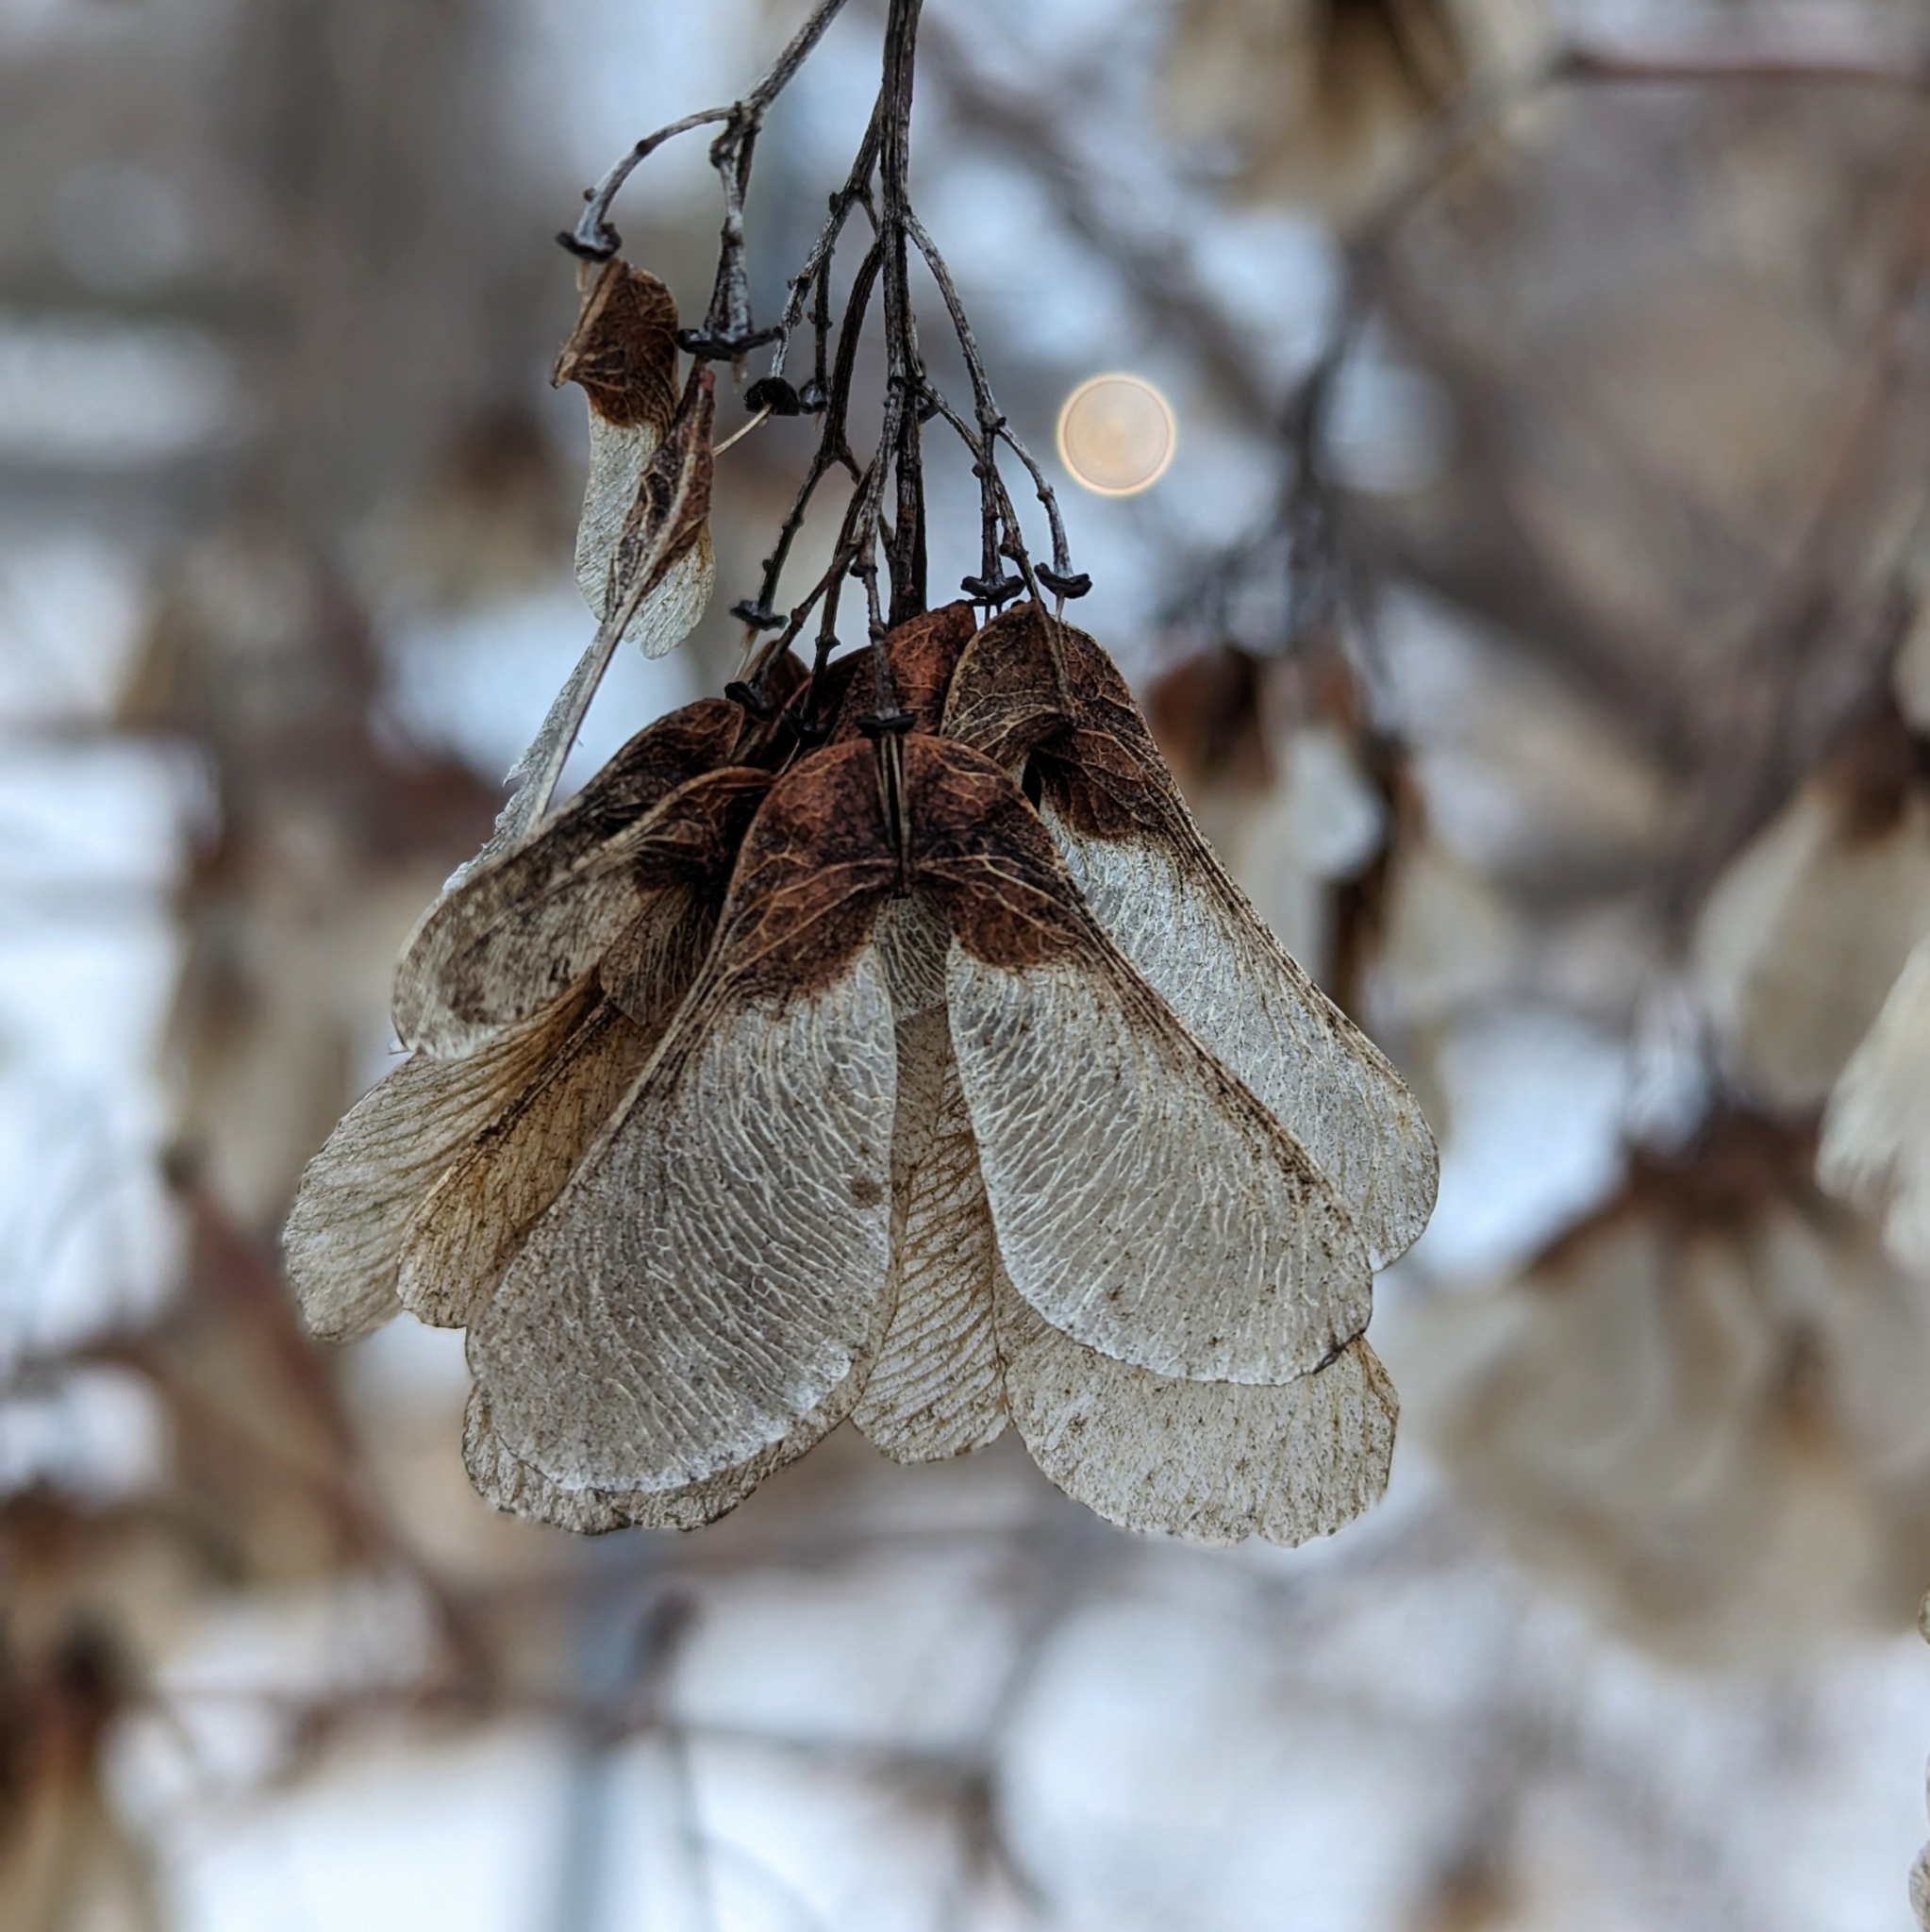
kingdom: Plantae
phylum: Tracheophyta
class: Magnoliopsida
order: Sapindales
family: Sapindaceae
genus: Acer
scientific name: Acer
